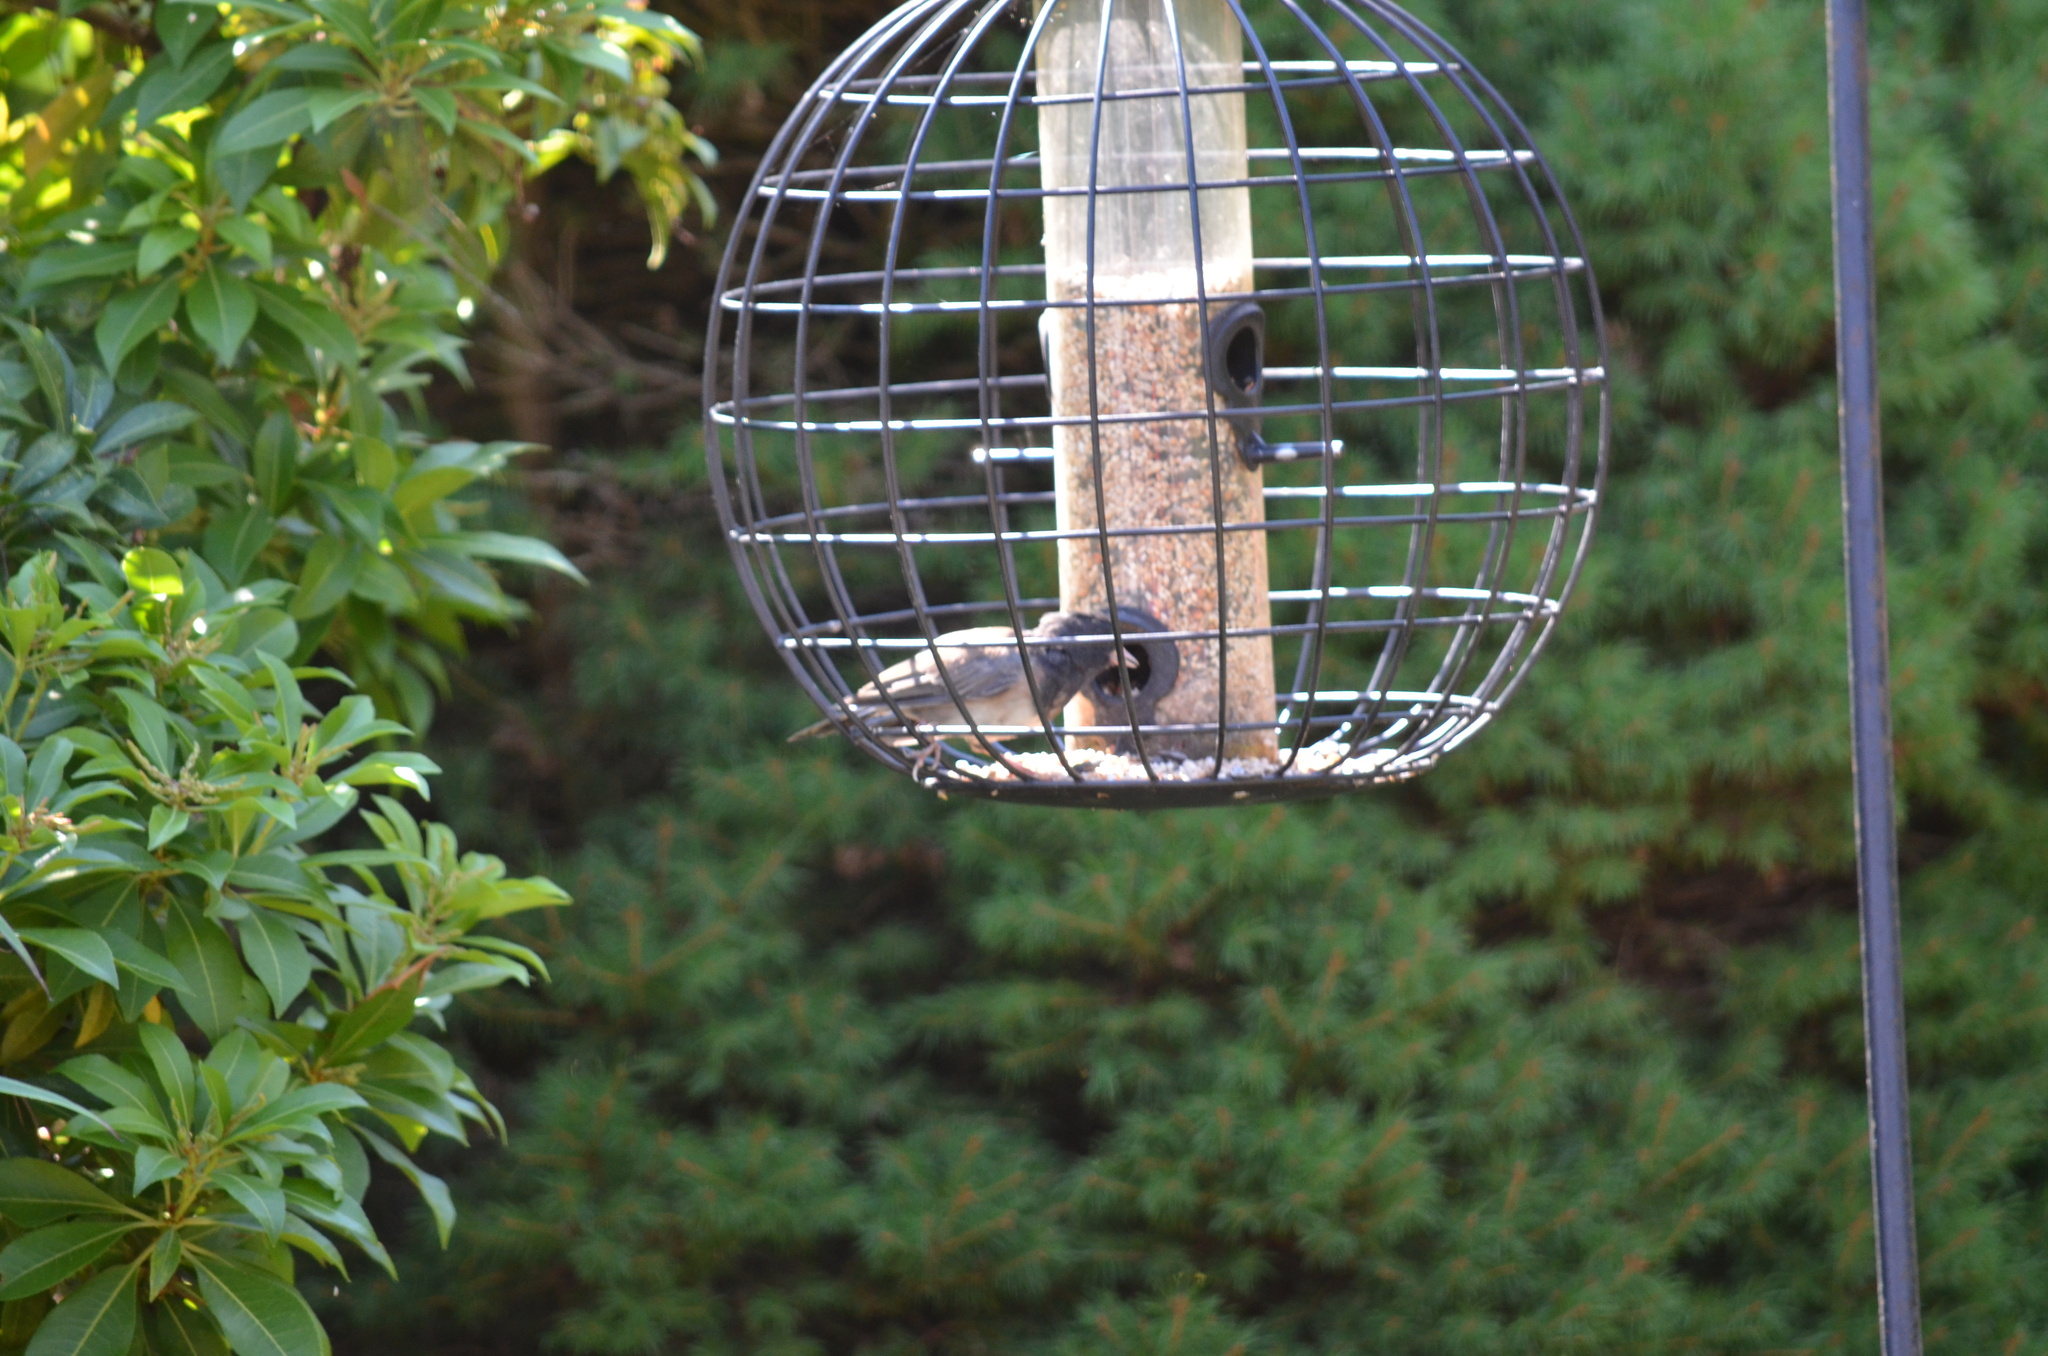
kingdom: Animalia
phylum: Chordata
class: Aves
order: Passeriformes
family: Passerellidae
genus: Junco
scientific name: Junco hyemalis
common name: Dark-eyed junco
